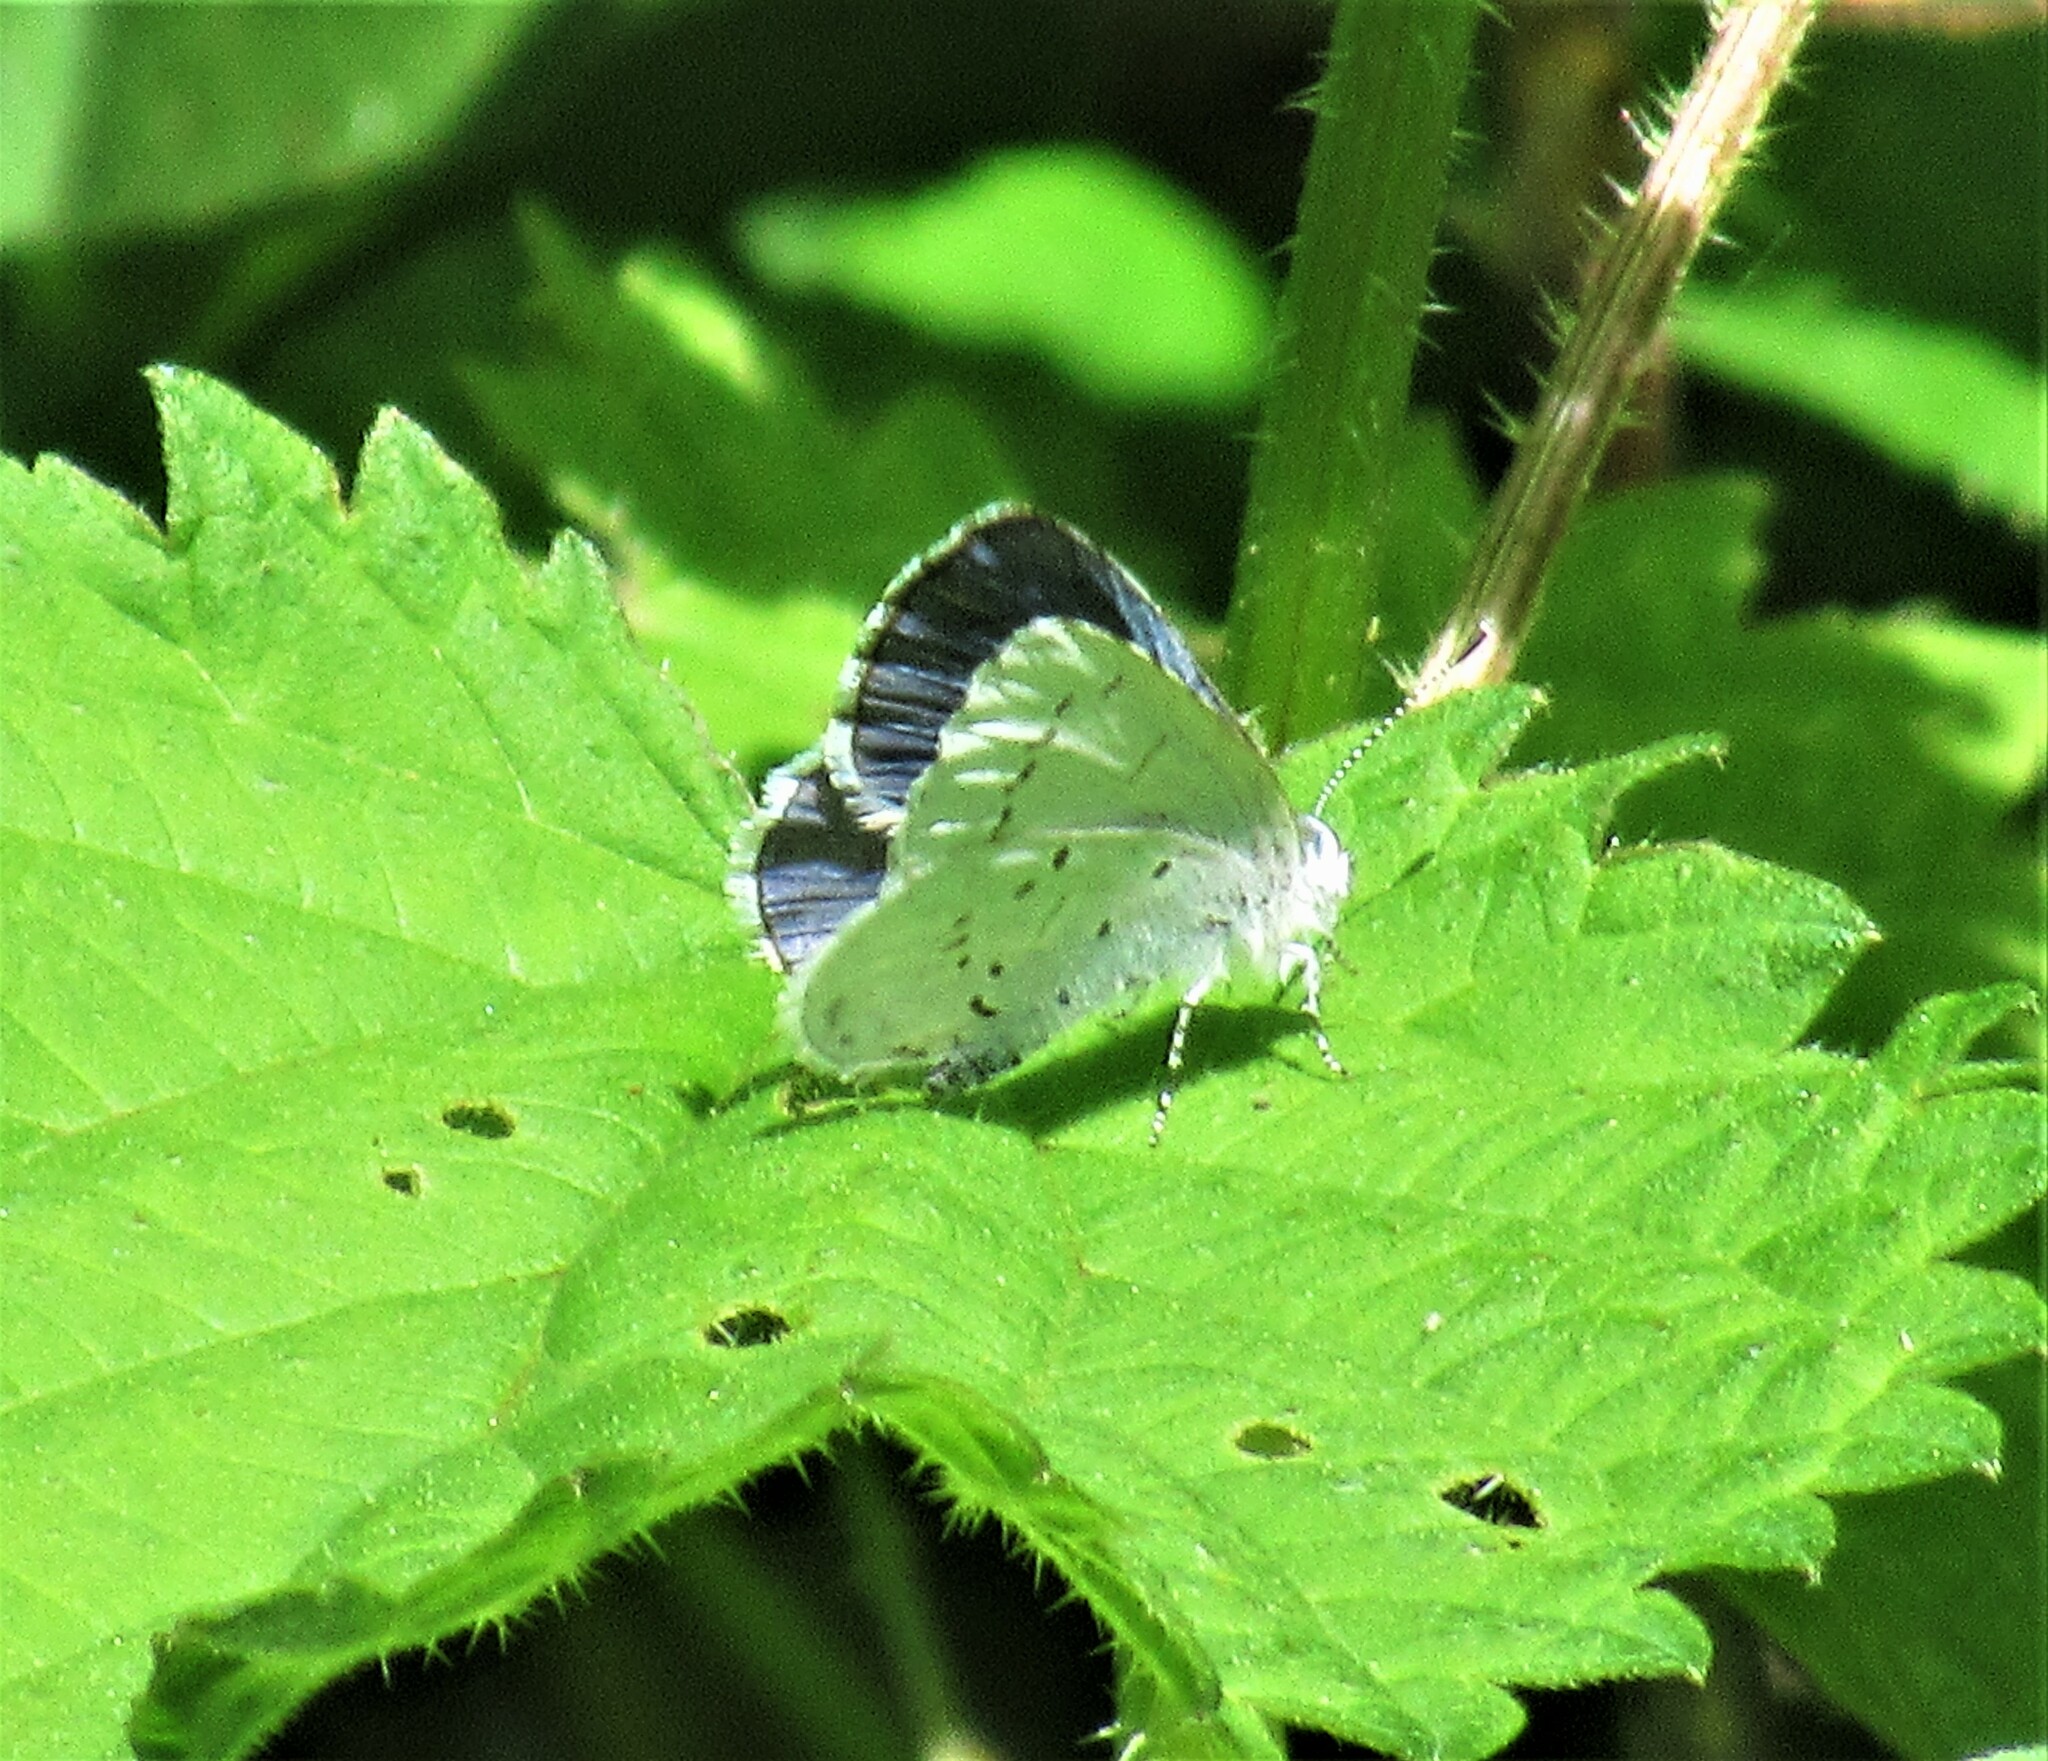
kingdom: Animalia
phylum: Arthropoda
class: Insecta
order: Lepidoptera
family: Lycaenidae
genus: Celastrina
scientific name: Celastrina ladon
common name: Spring azure
